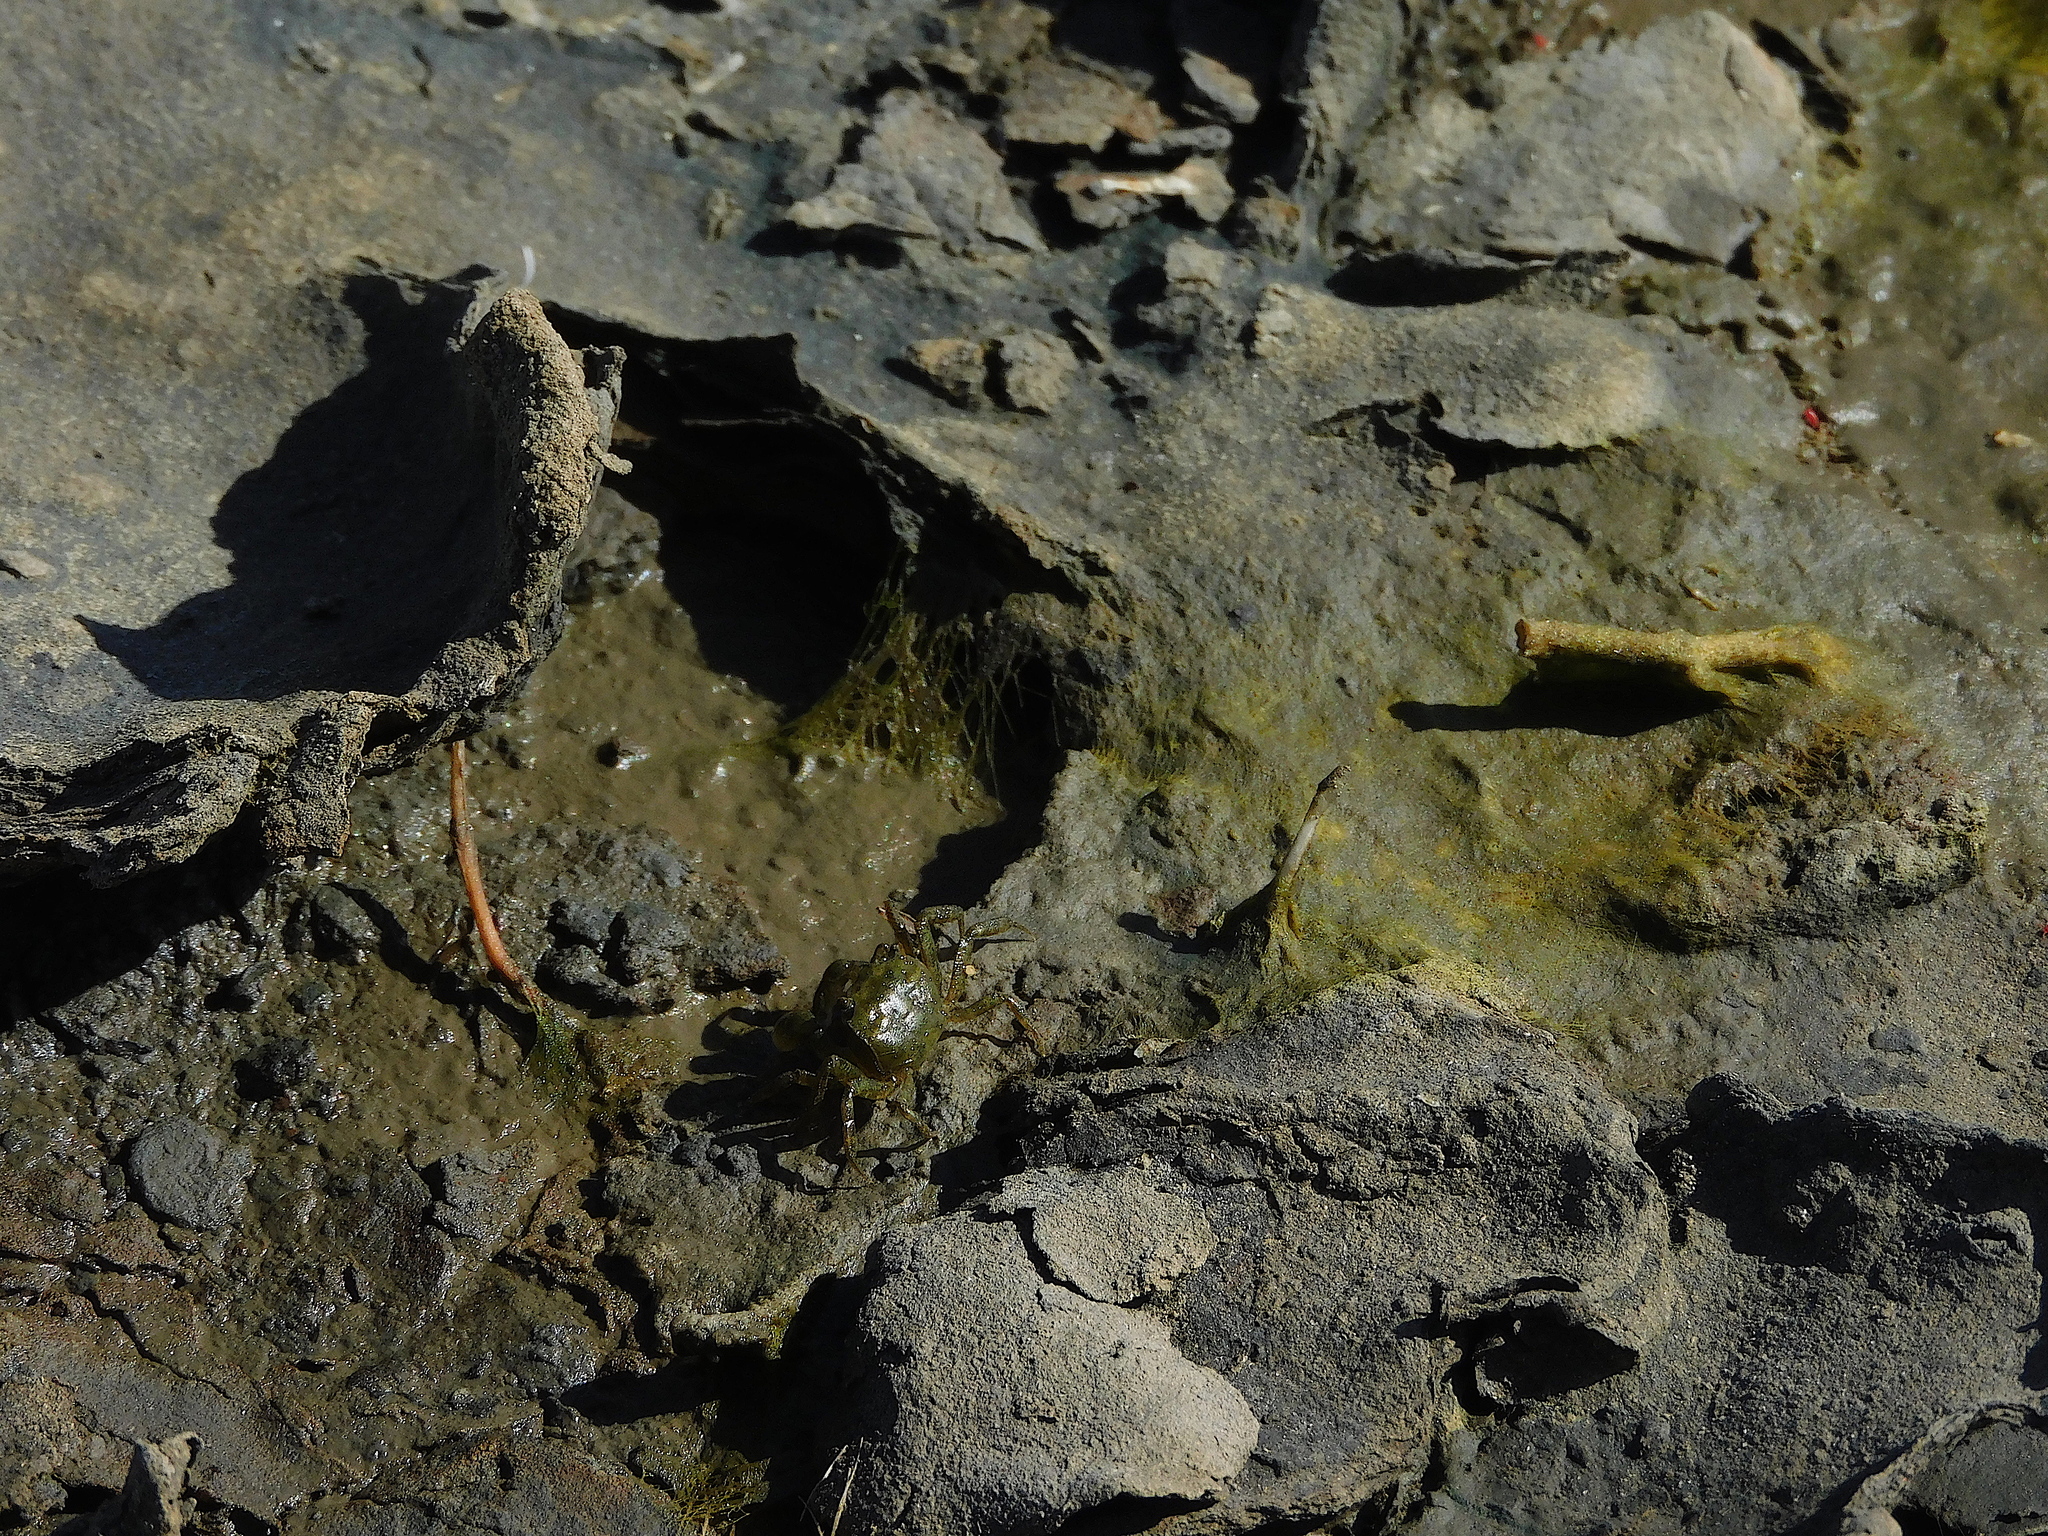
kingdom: Animalia
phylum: Arthropoda
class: Malacostraca
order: Decapoda
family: Varunidae
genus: Helograpsus
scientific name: Helograpsus haswellianus
